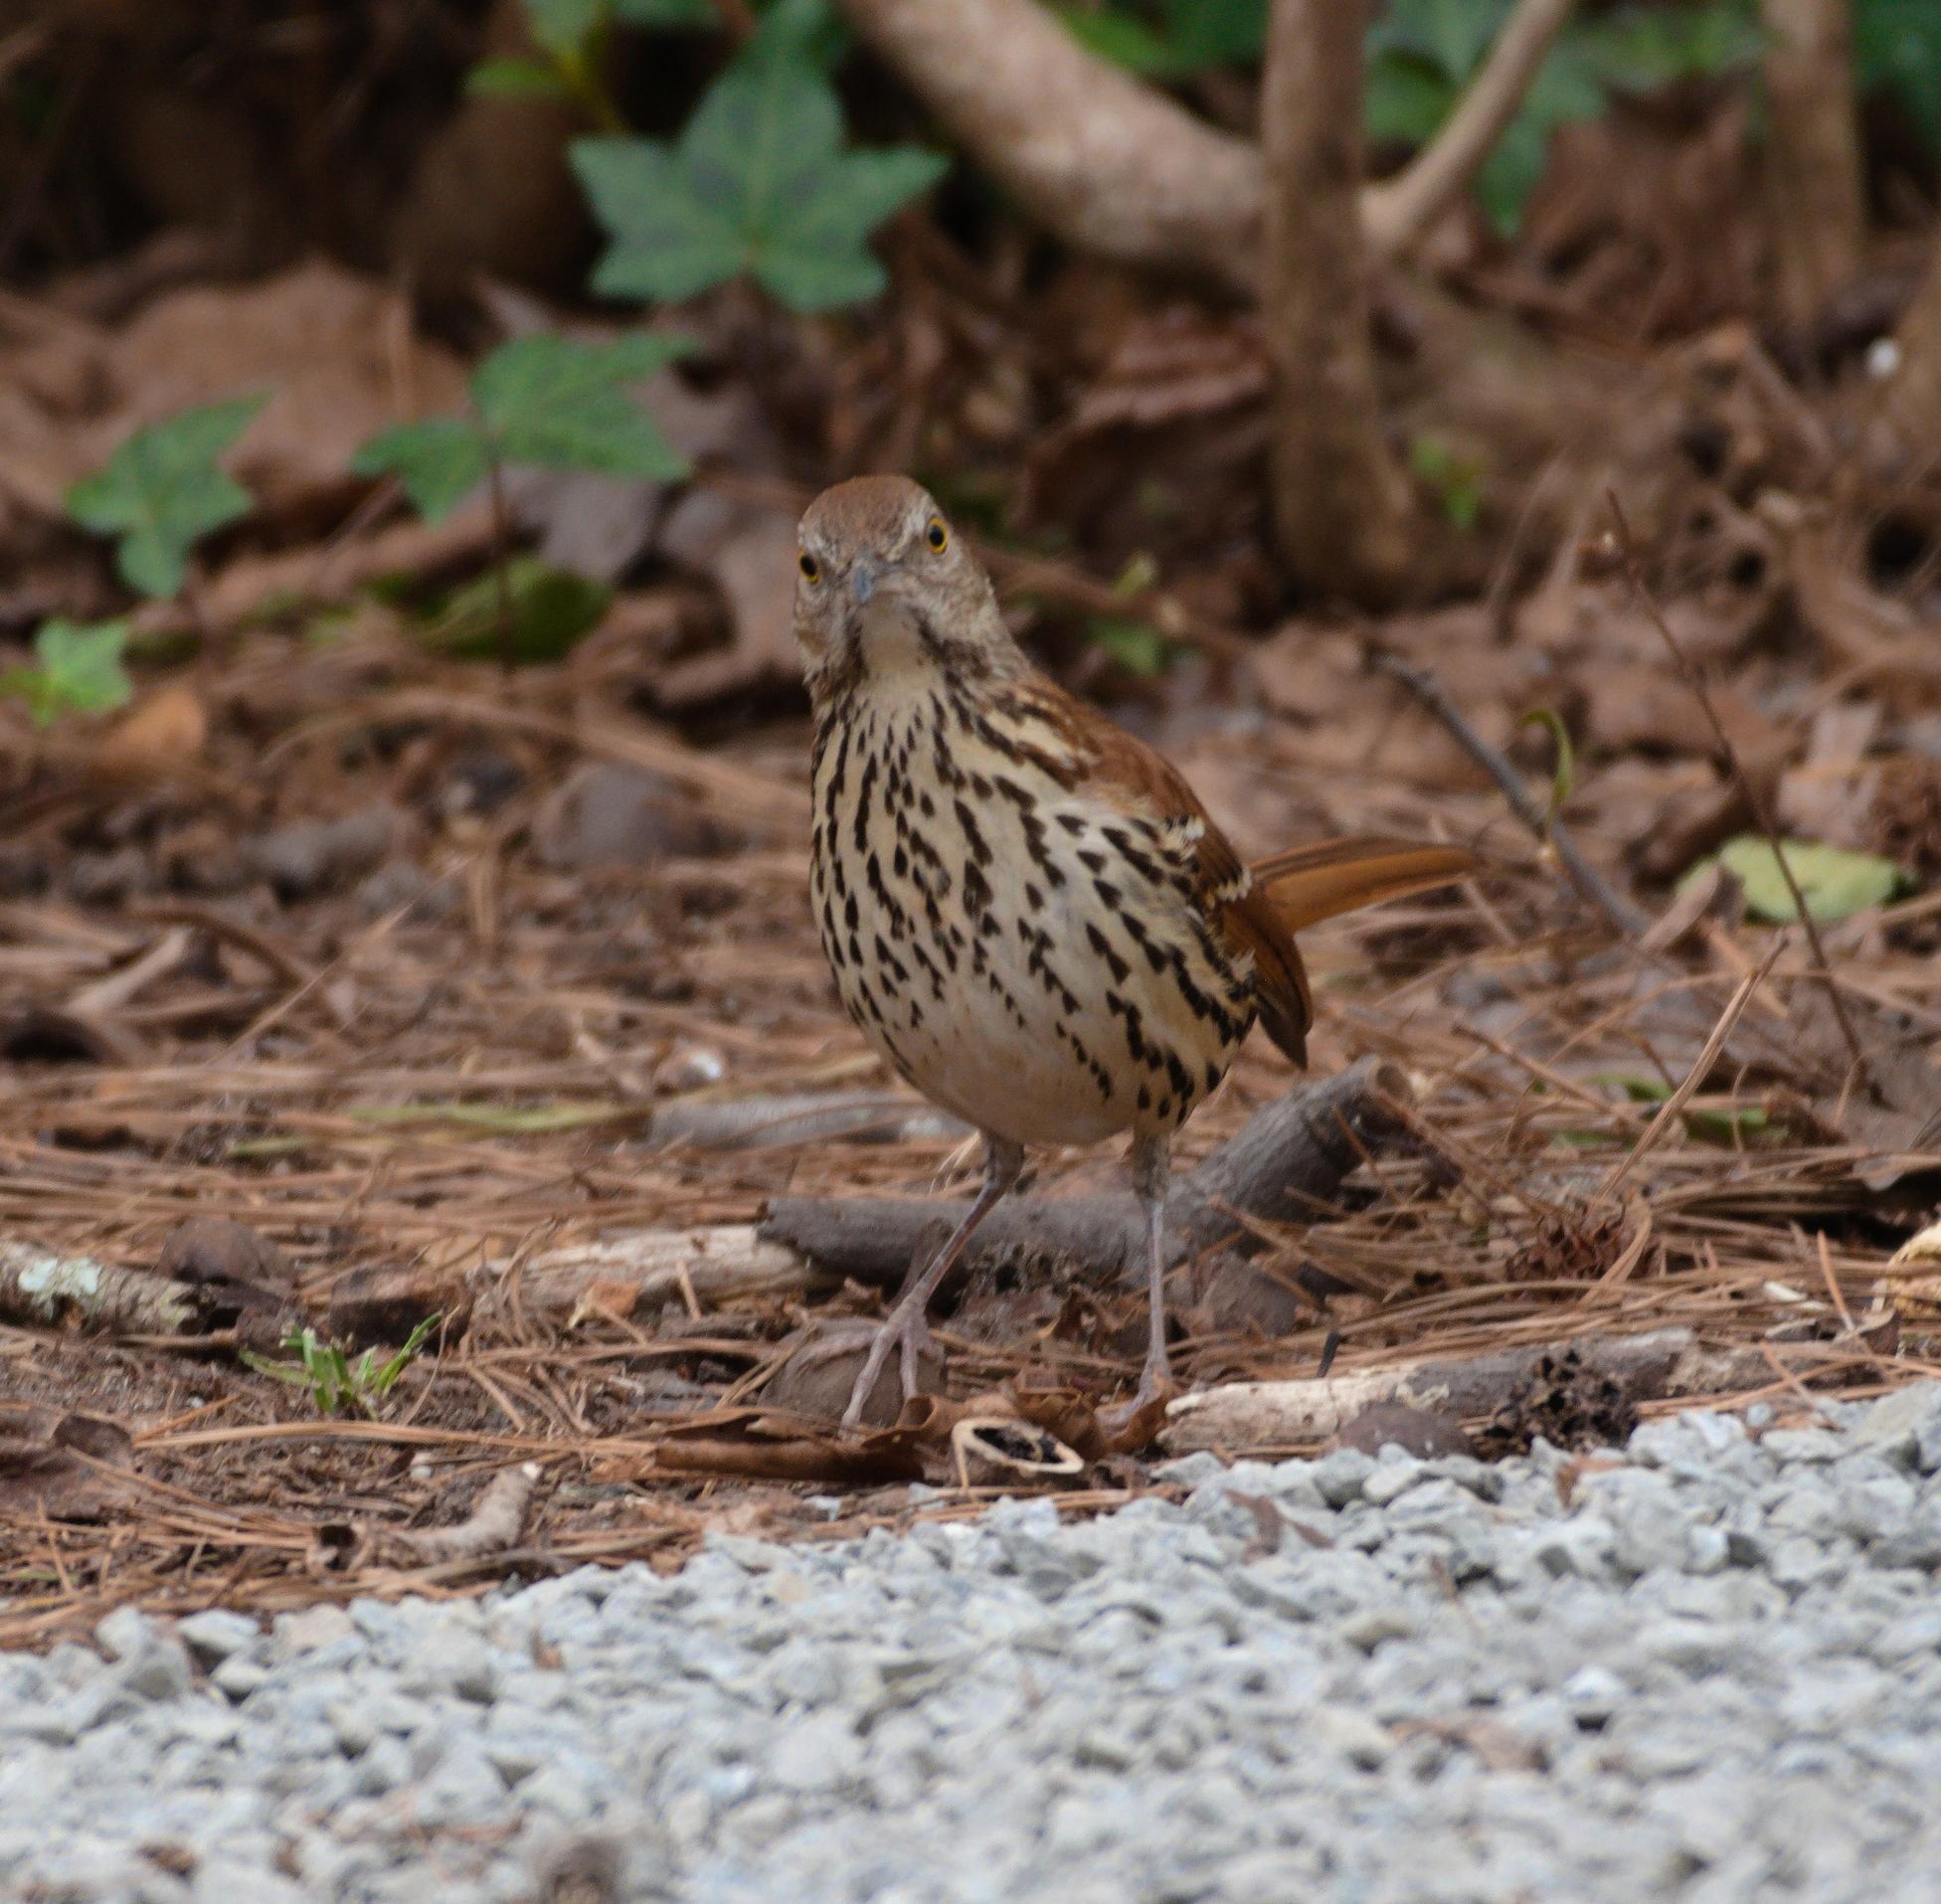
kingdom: Animalia
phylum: Chordata
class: Aves
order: Passeriformes
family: Mimidae
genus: Toxostoma
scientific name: Toxostoma rufum
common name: Brown thrasher
